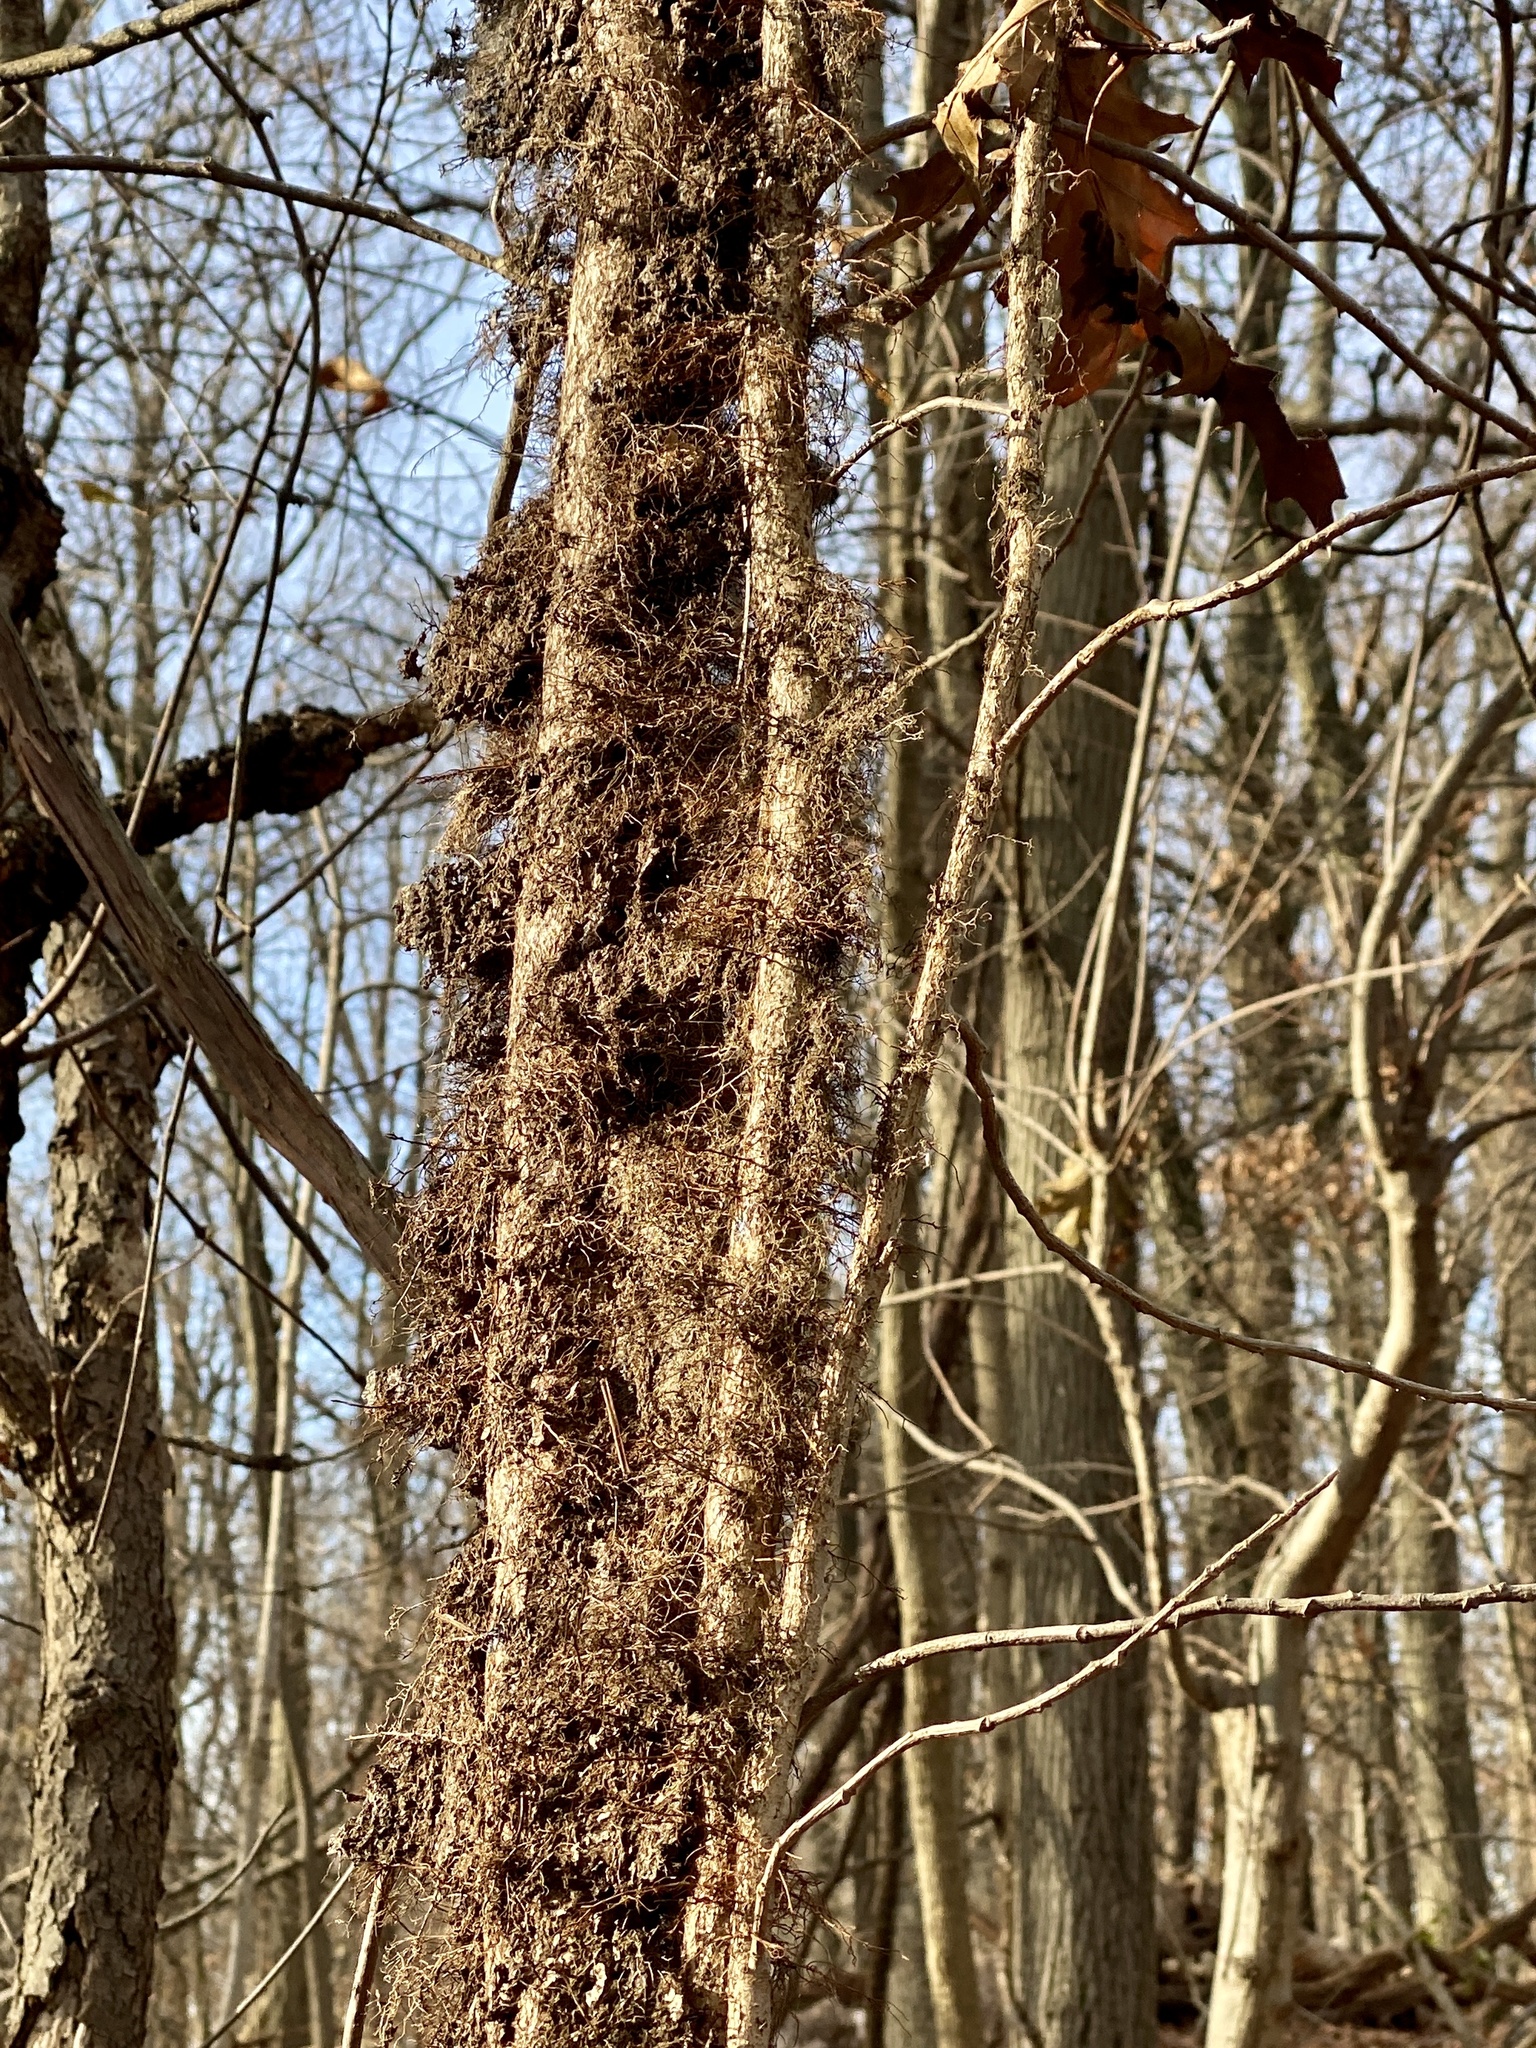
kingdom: Plantae
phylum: Tracheophyta
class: Magnoliopsida
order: Sapindales
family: Anacardiaceae
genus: Toxicodendron
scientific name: Toxicodendron radicans
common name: Poison ivy
